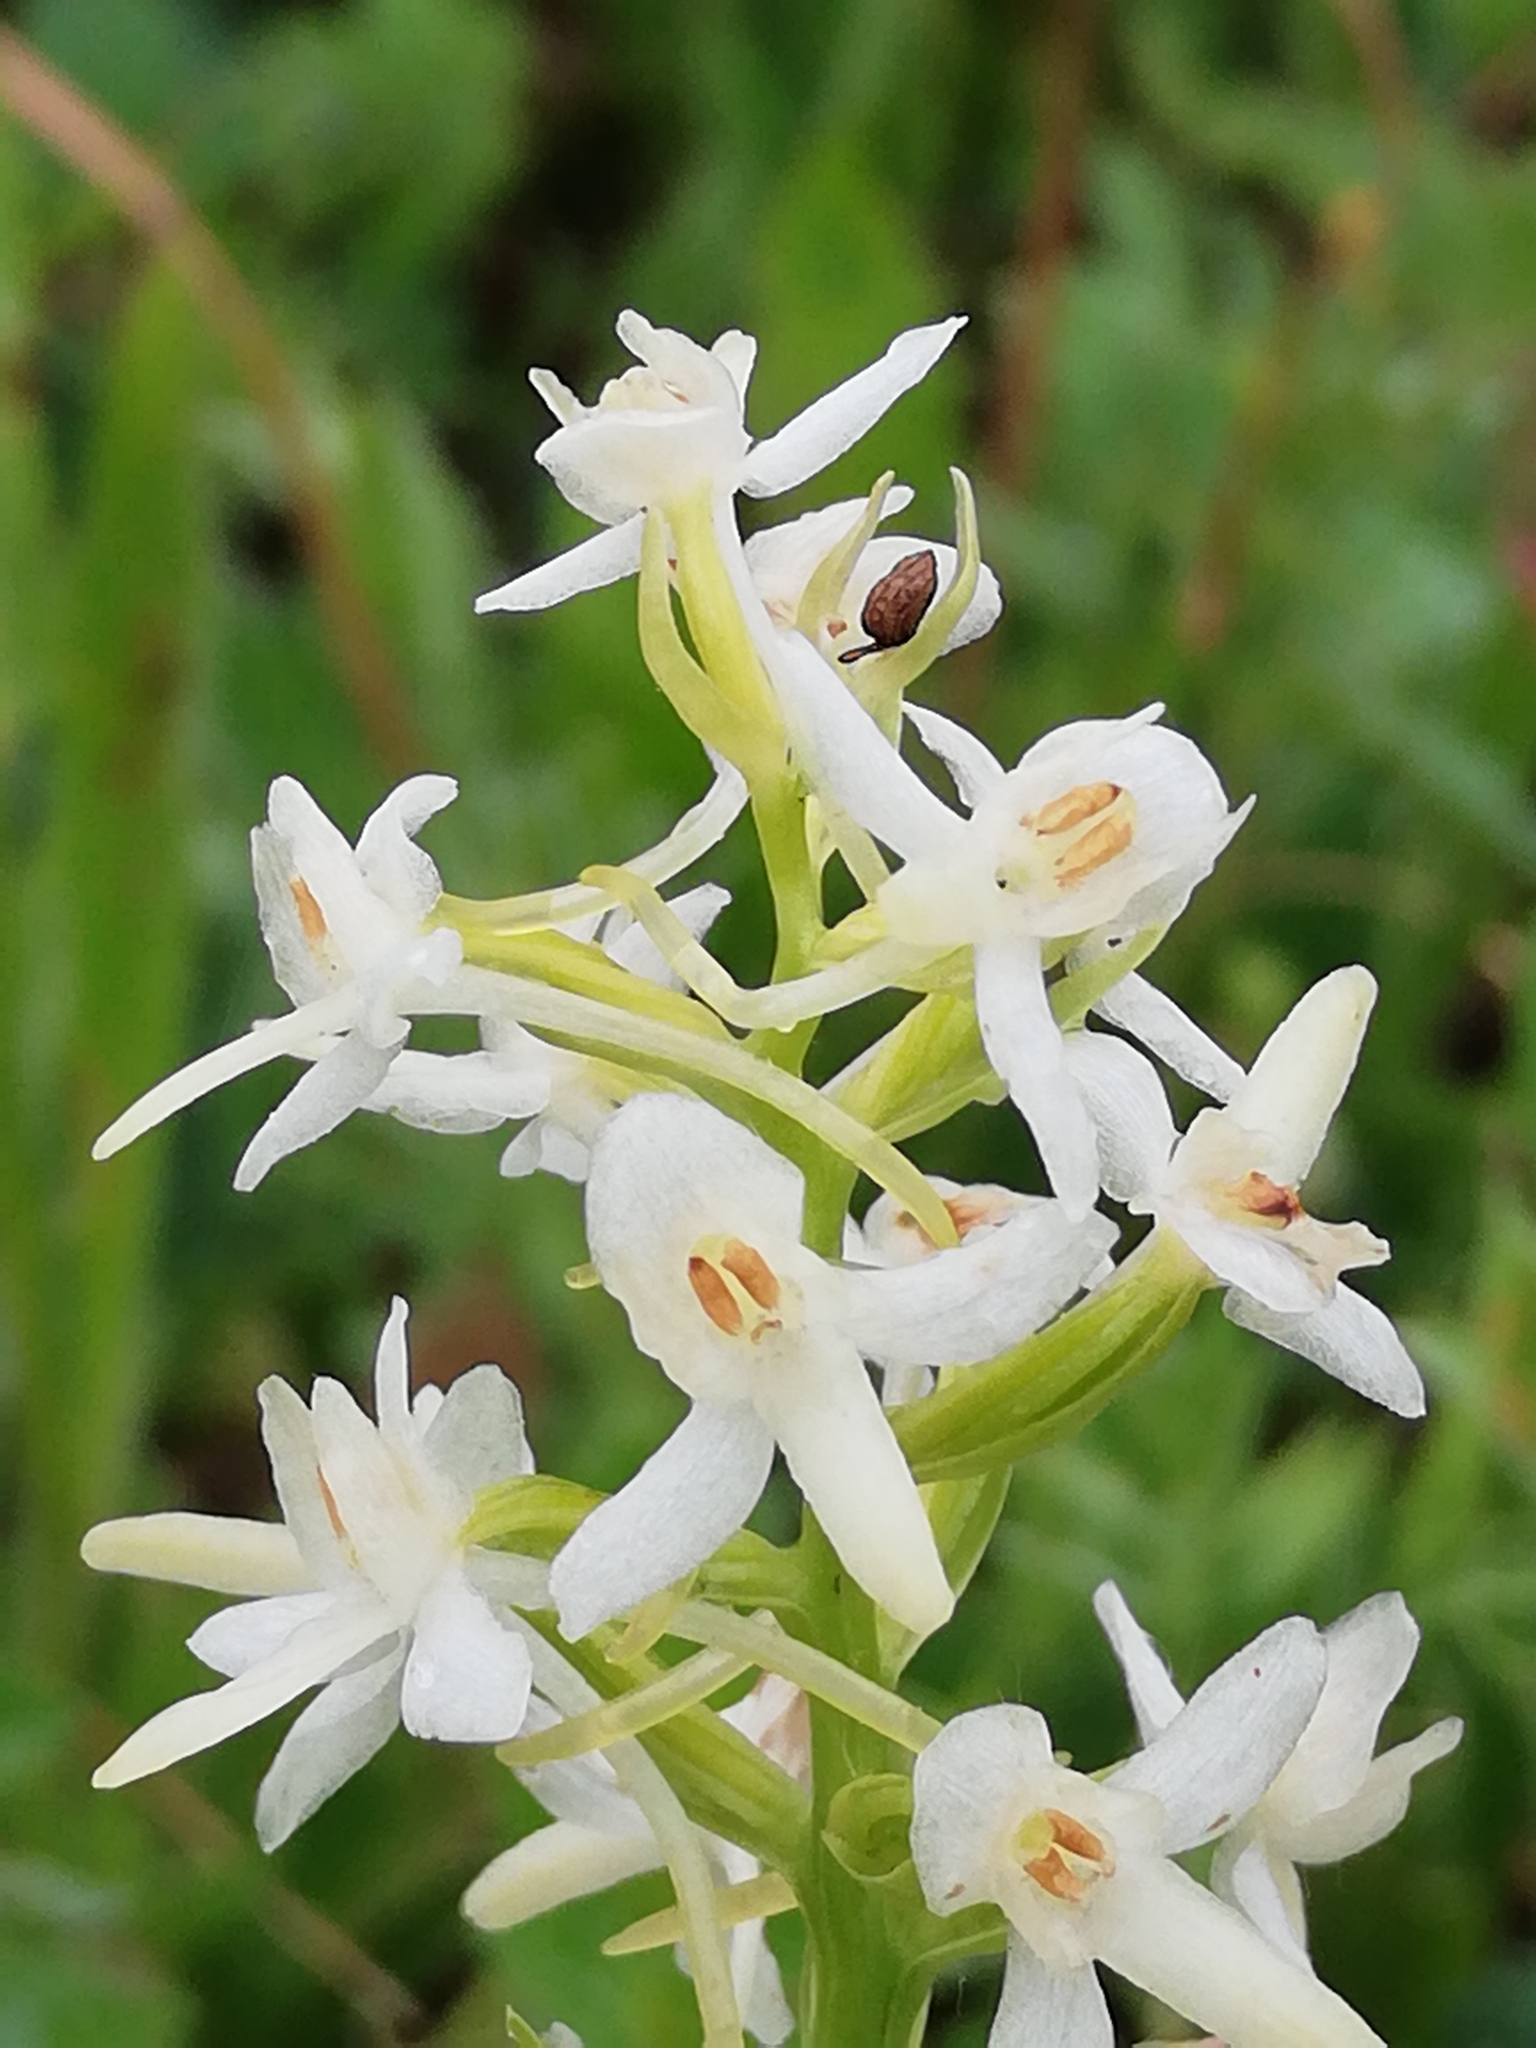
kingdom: Plantae
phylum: Tracheophyta
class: Liliopsida
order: Asparagales
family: Orchidaceae
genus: Platanthera
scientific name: Platanthera bifolia
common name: Lesser butterfly-orchid
